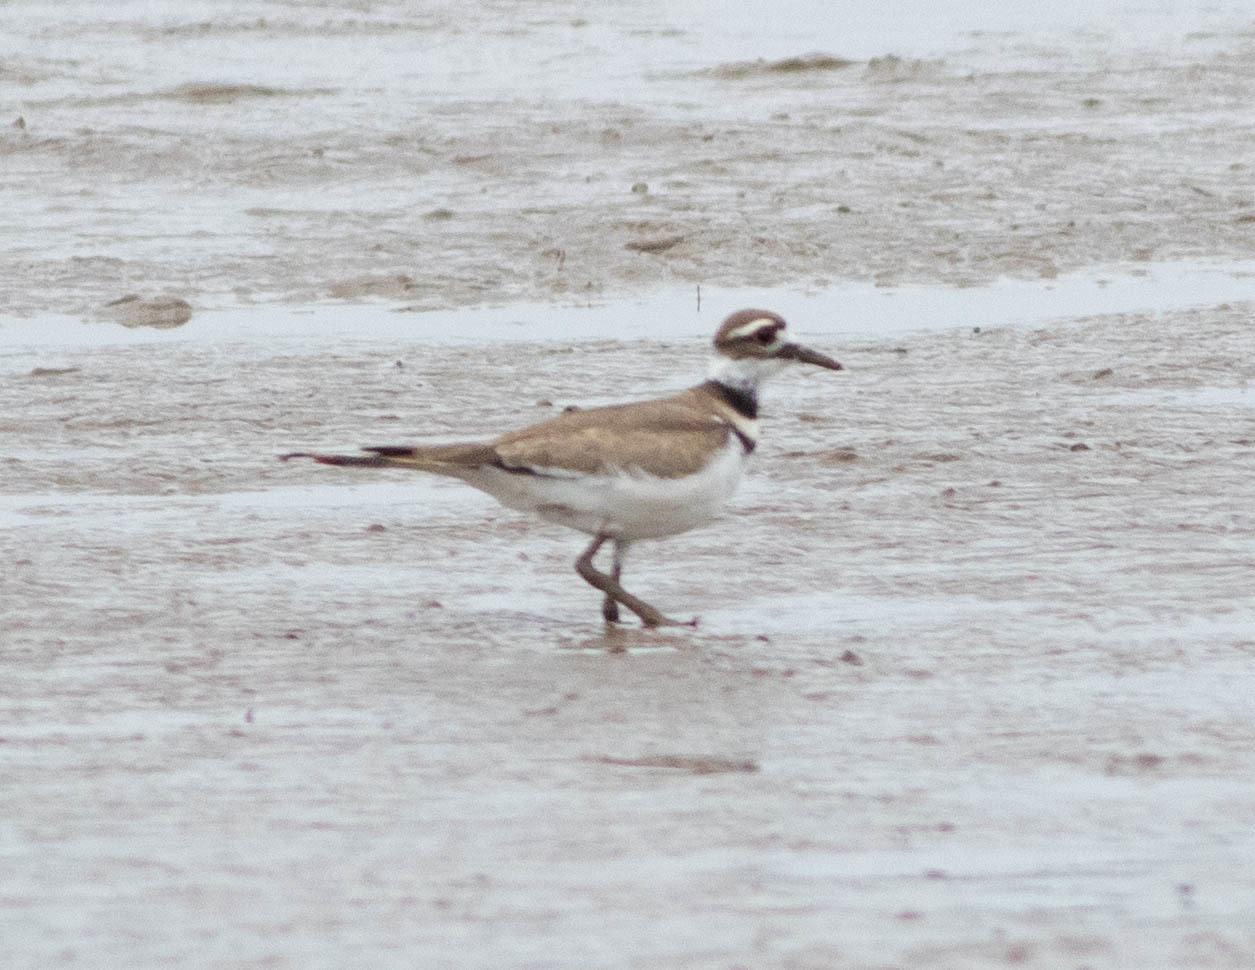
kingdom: Animalia
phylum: Chordata
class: Aves
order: Charadriiformes
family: Charadriidae
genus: Charadrius
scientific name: Charadrius vociferus
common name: Killdeer
